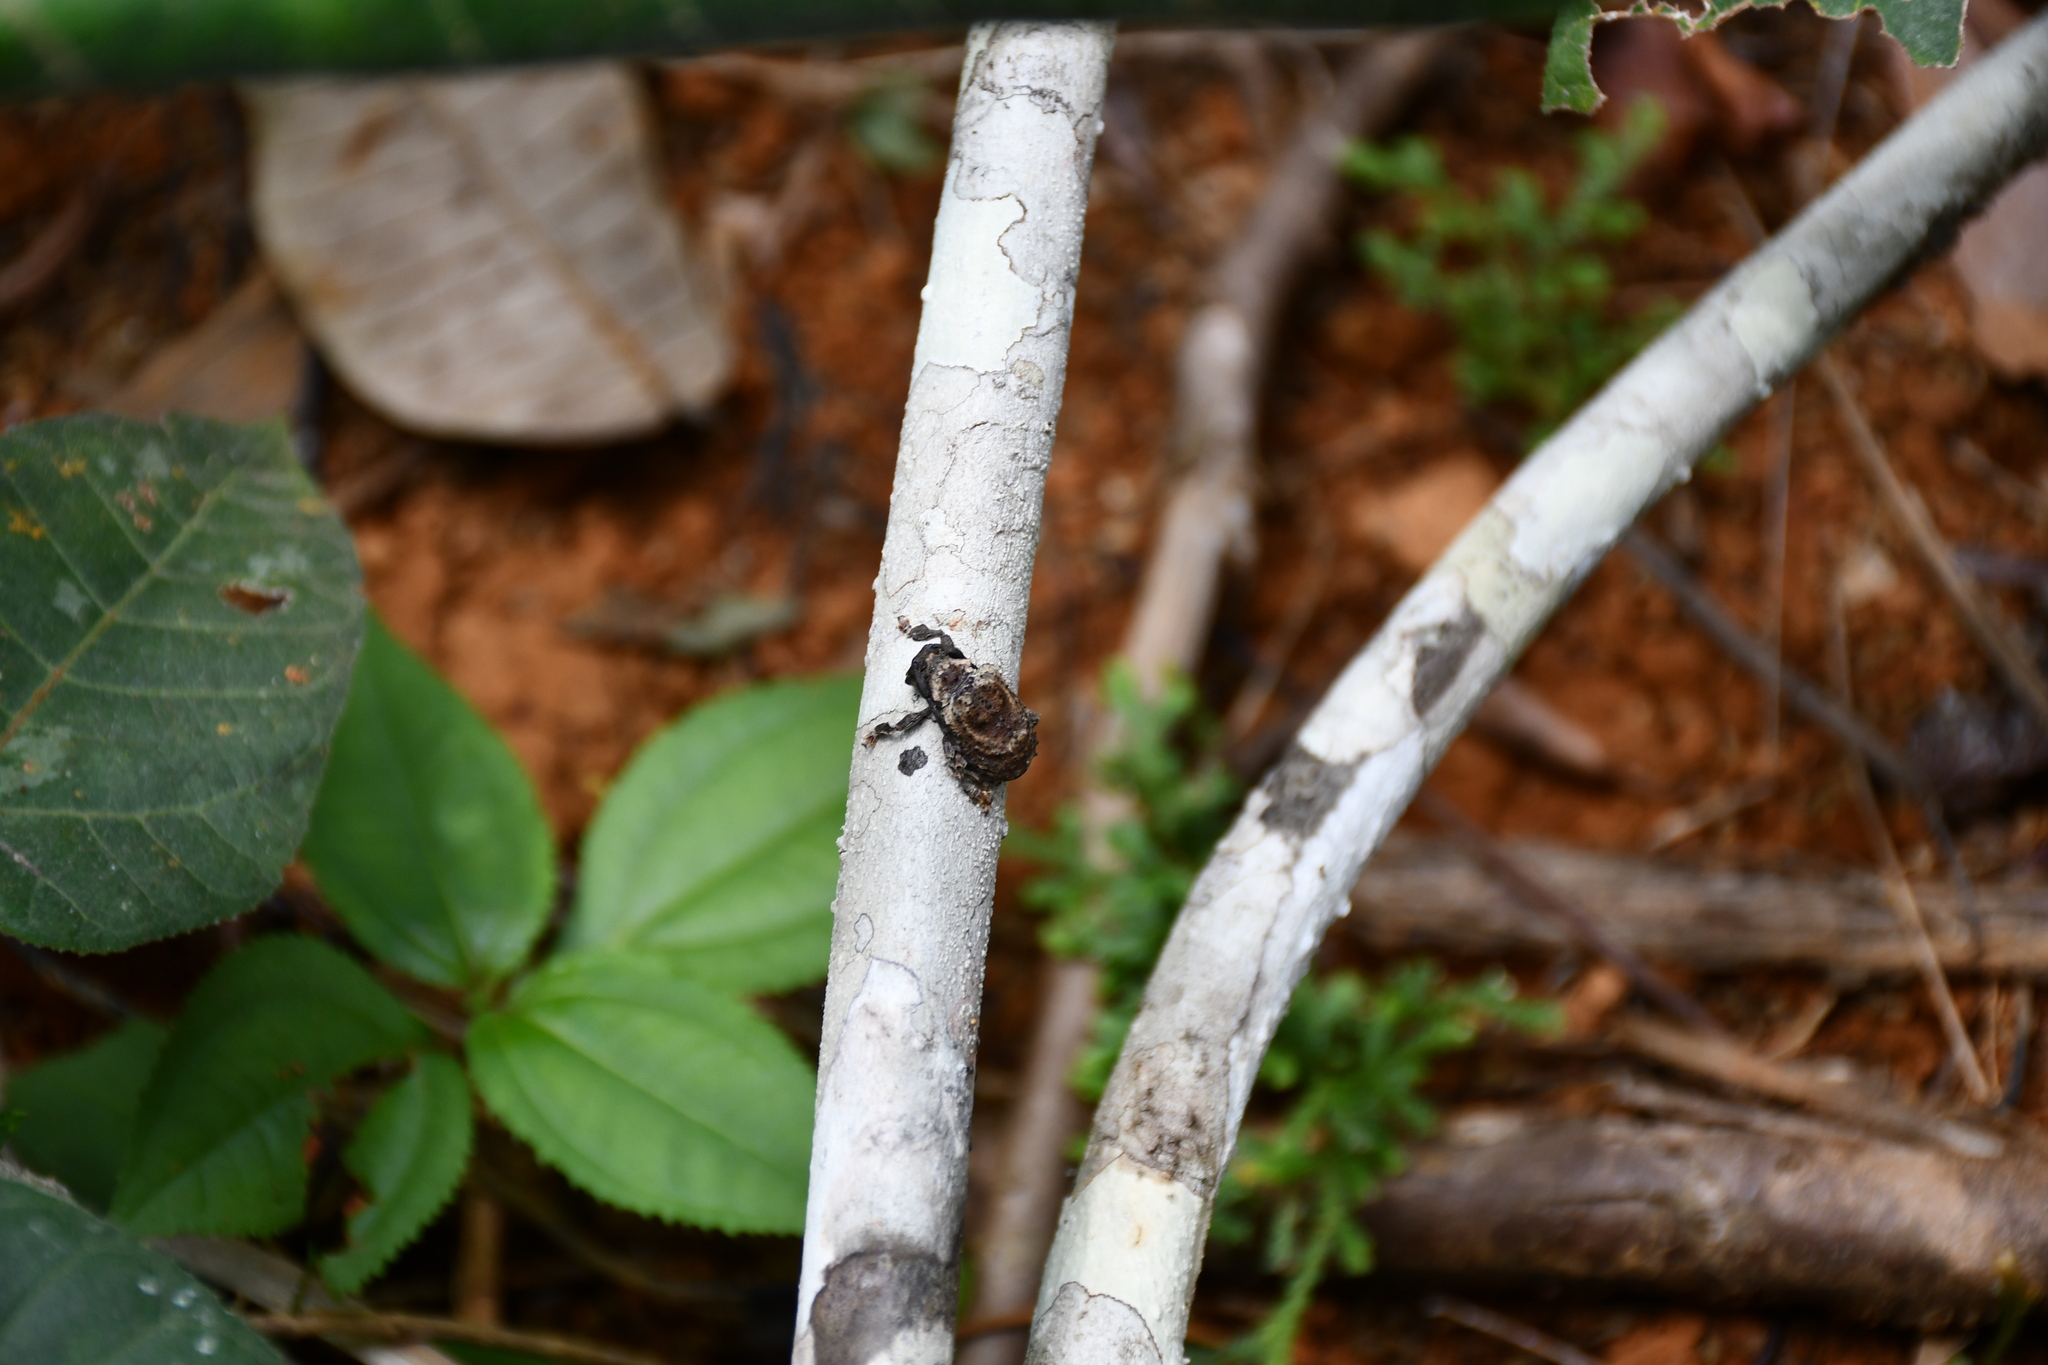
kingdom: Animalia
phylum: Arthropoda
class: Insecta
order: Coleoptera
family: Cerambycidae
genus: Onychocerus
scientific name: Onychocerus concentricus
